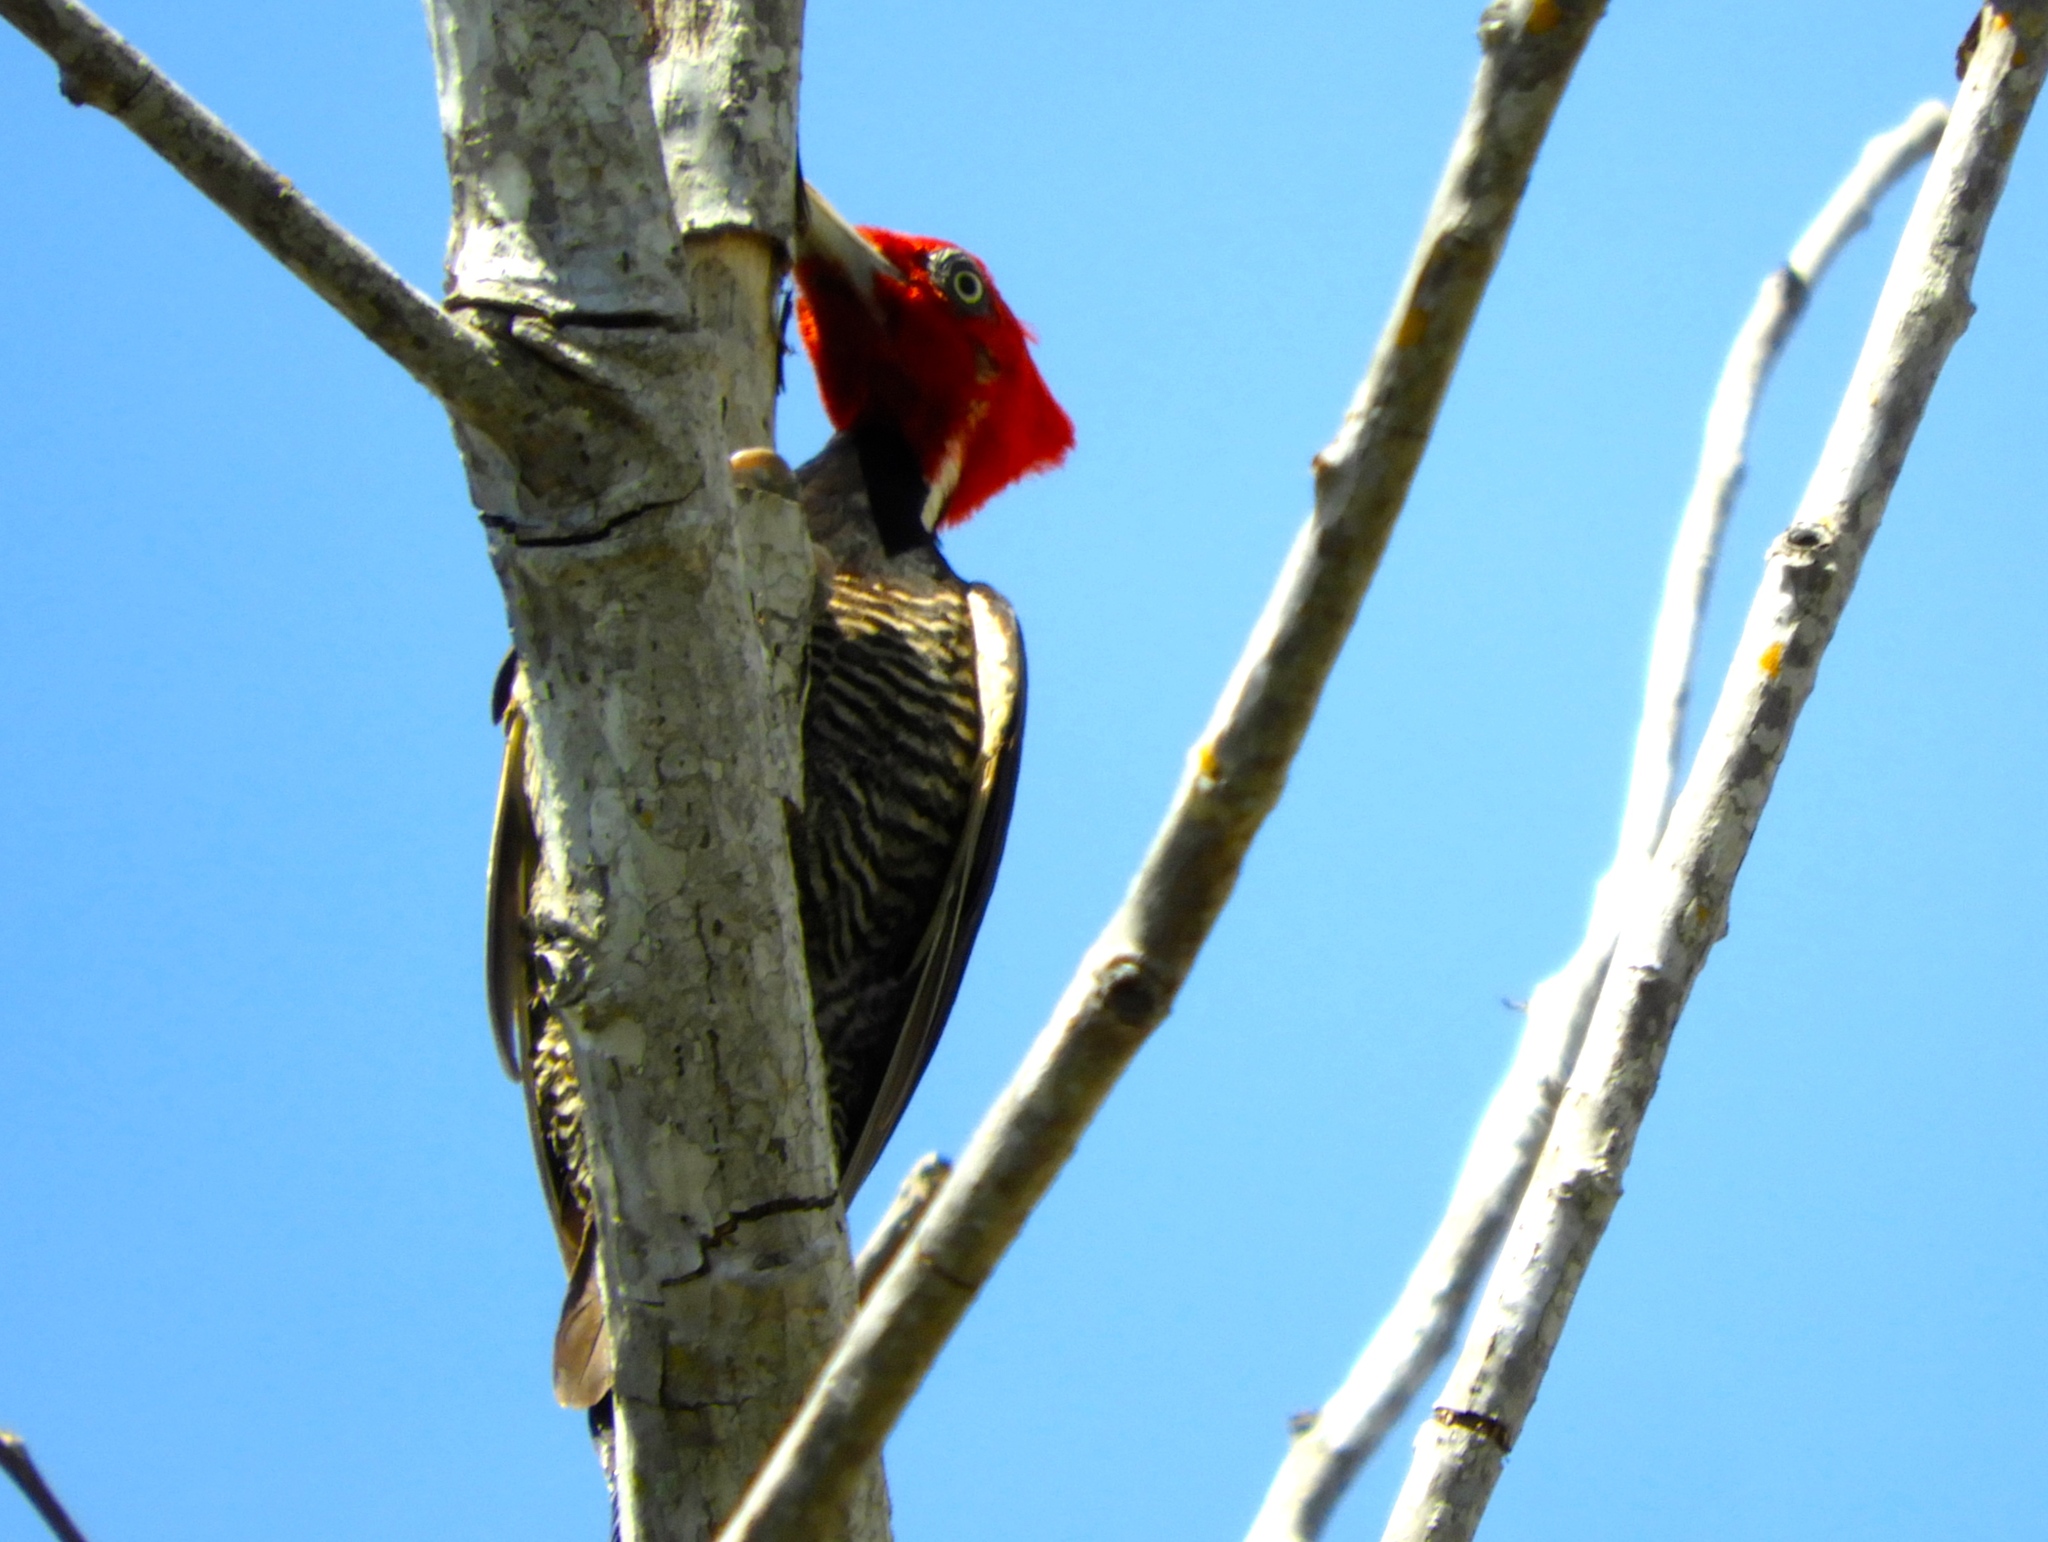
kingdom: Animalia
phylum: Chordata
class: Aves
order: Piciformes
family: Picidae
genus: Campephilus
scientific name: Campephilus guatemalensis
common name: Pale-billed woodpecker
